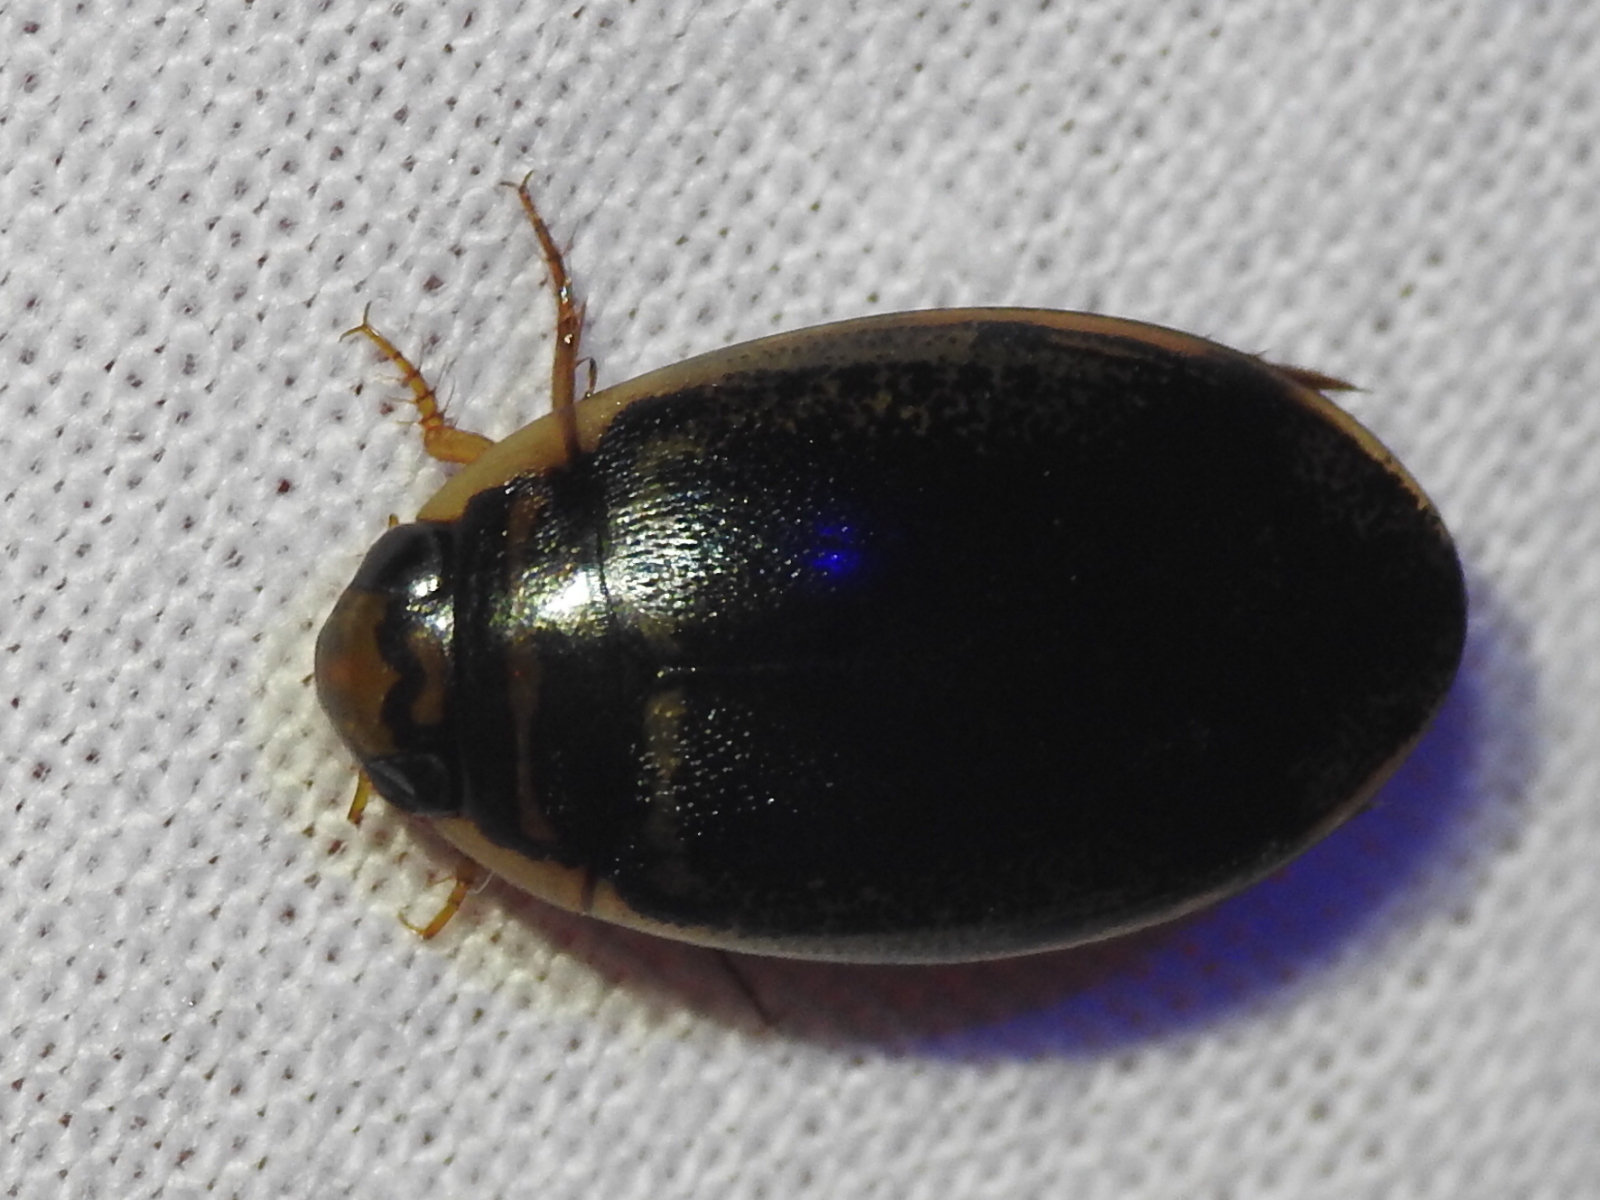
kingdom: Animalia
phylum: Arthropoda
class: Insecta
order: Coleoptera
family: Dytiscidae
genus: Thermonectus
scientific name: Thermonectus basillaris
